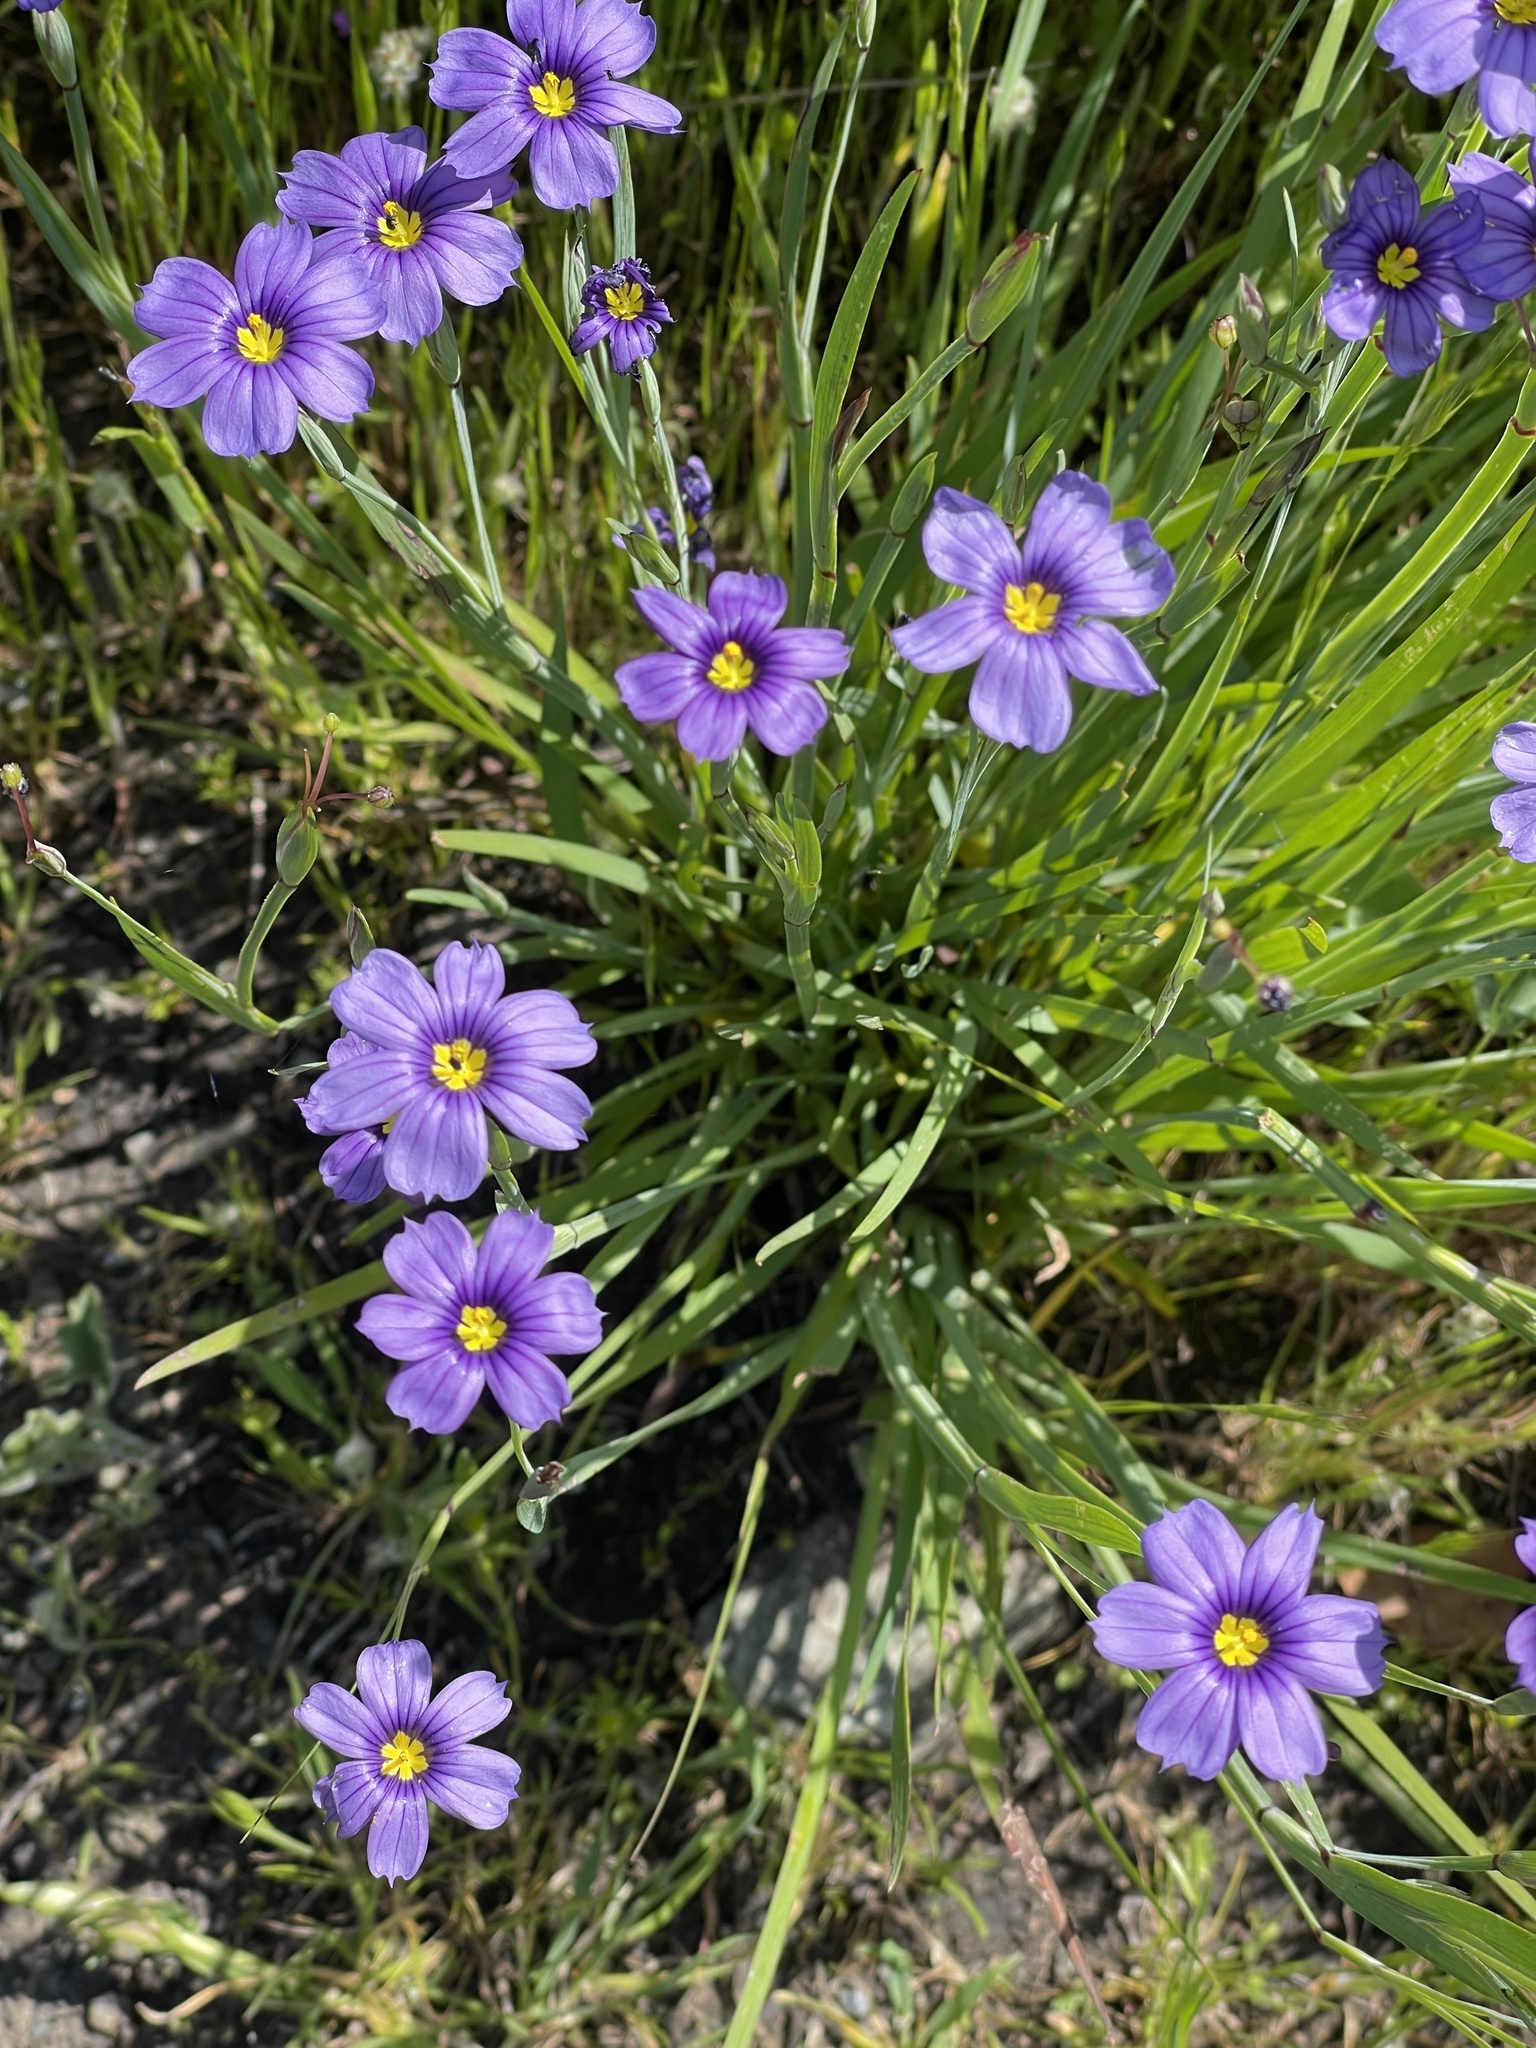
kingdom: Plantae
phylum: Tracheophyta
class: Liliopsida
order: Asparagales
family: Iridaceae
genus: Sisyrinchium
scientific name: Sisyrinchium bellum
